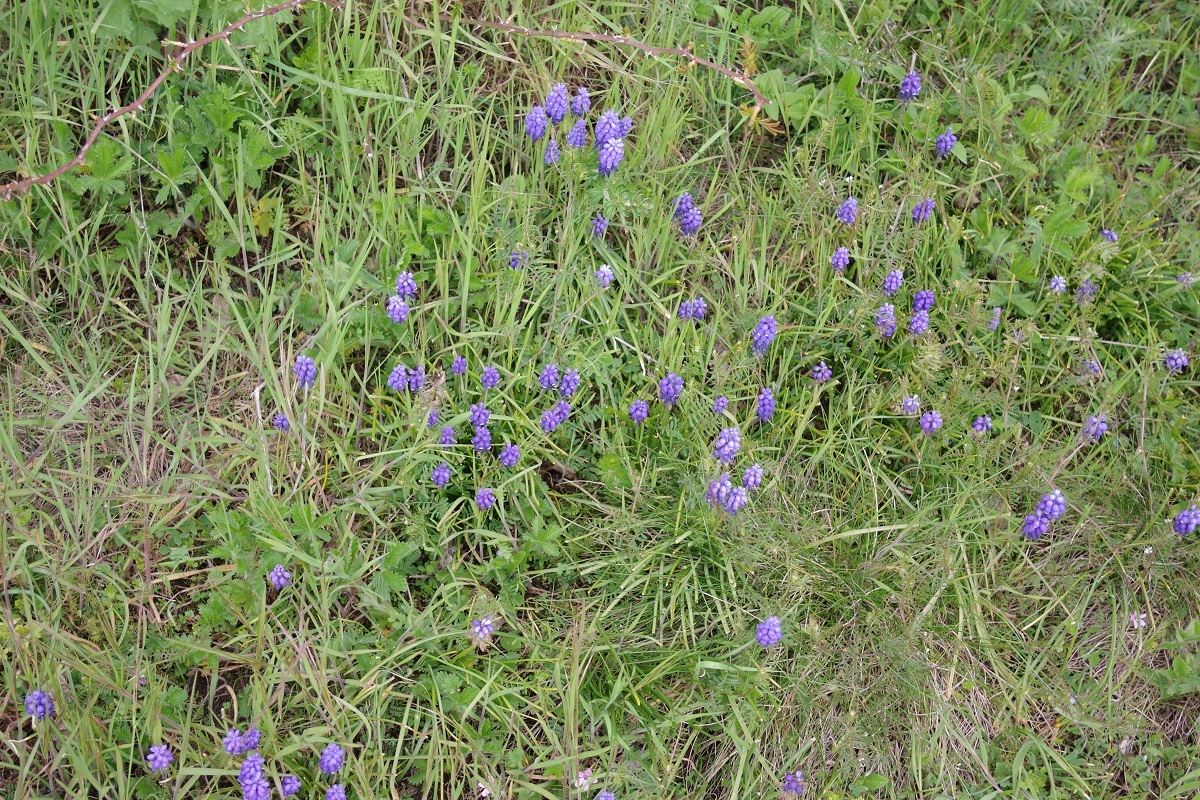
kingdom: Plantae
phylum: Tracheophyta
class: Liliopsida
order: Asparagales
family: Asparagaceae
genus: Muscari
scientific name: Muscari armeniacum
